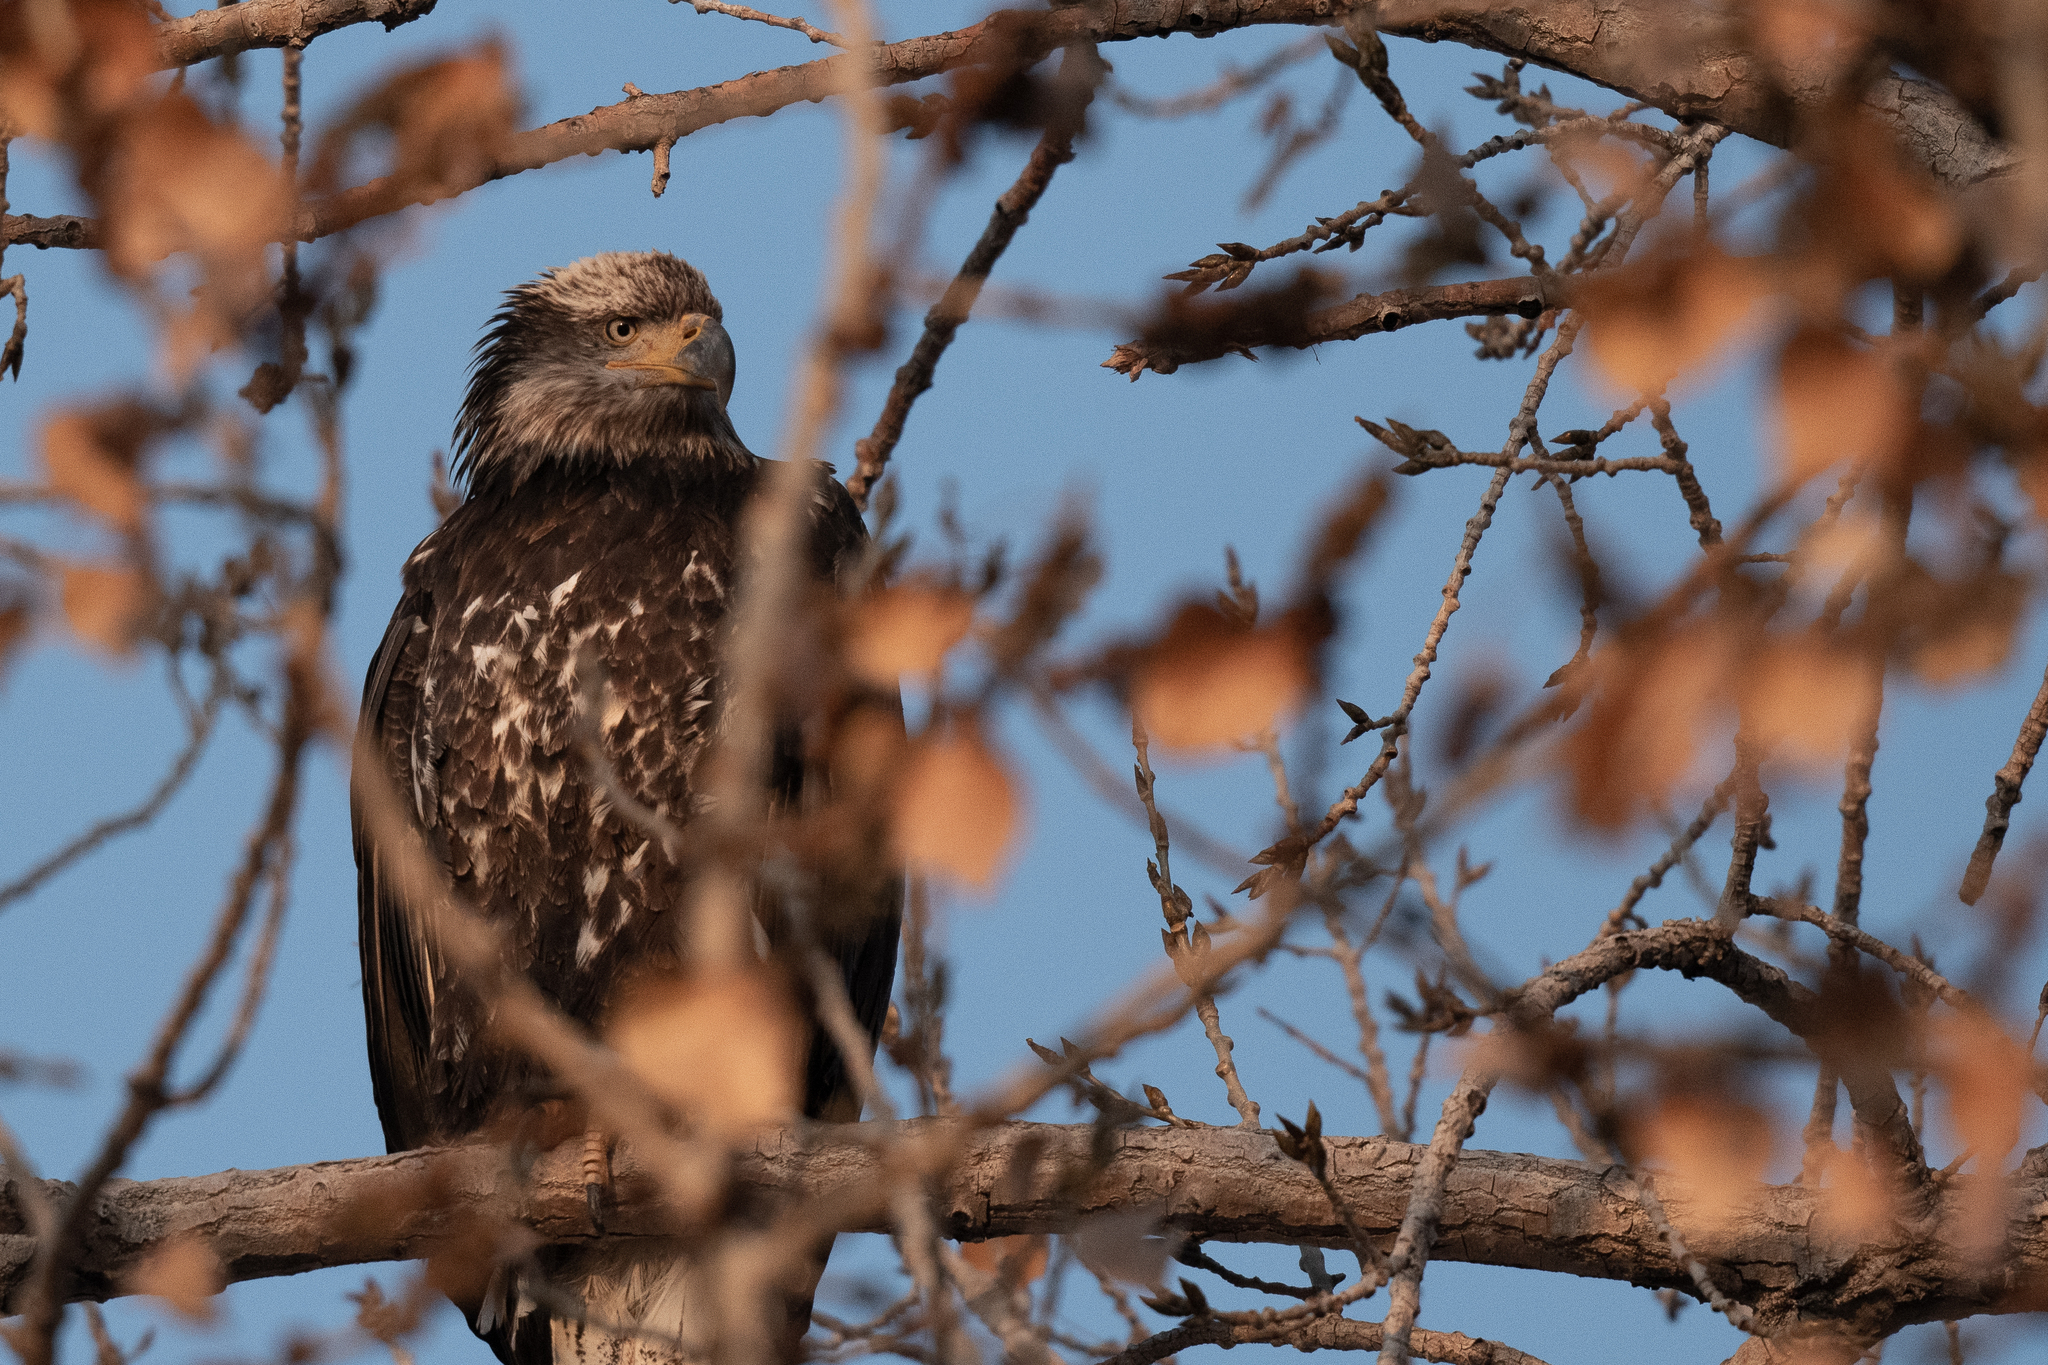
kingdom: Animalia
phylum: Chordata
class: Aves
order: Accipitriformes
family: Accipitridae
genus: Haliaeetus
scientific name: Haliaeetus leucocephalus
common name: Bald eagle
